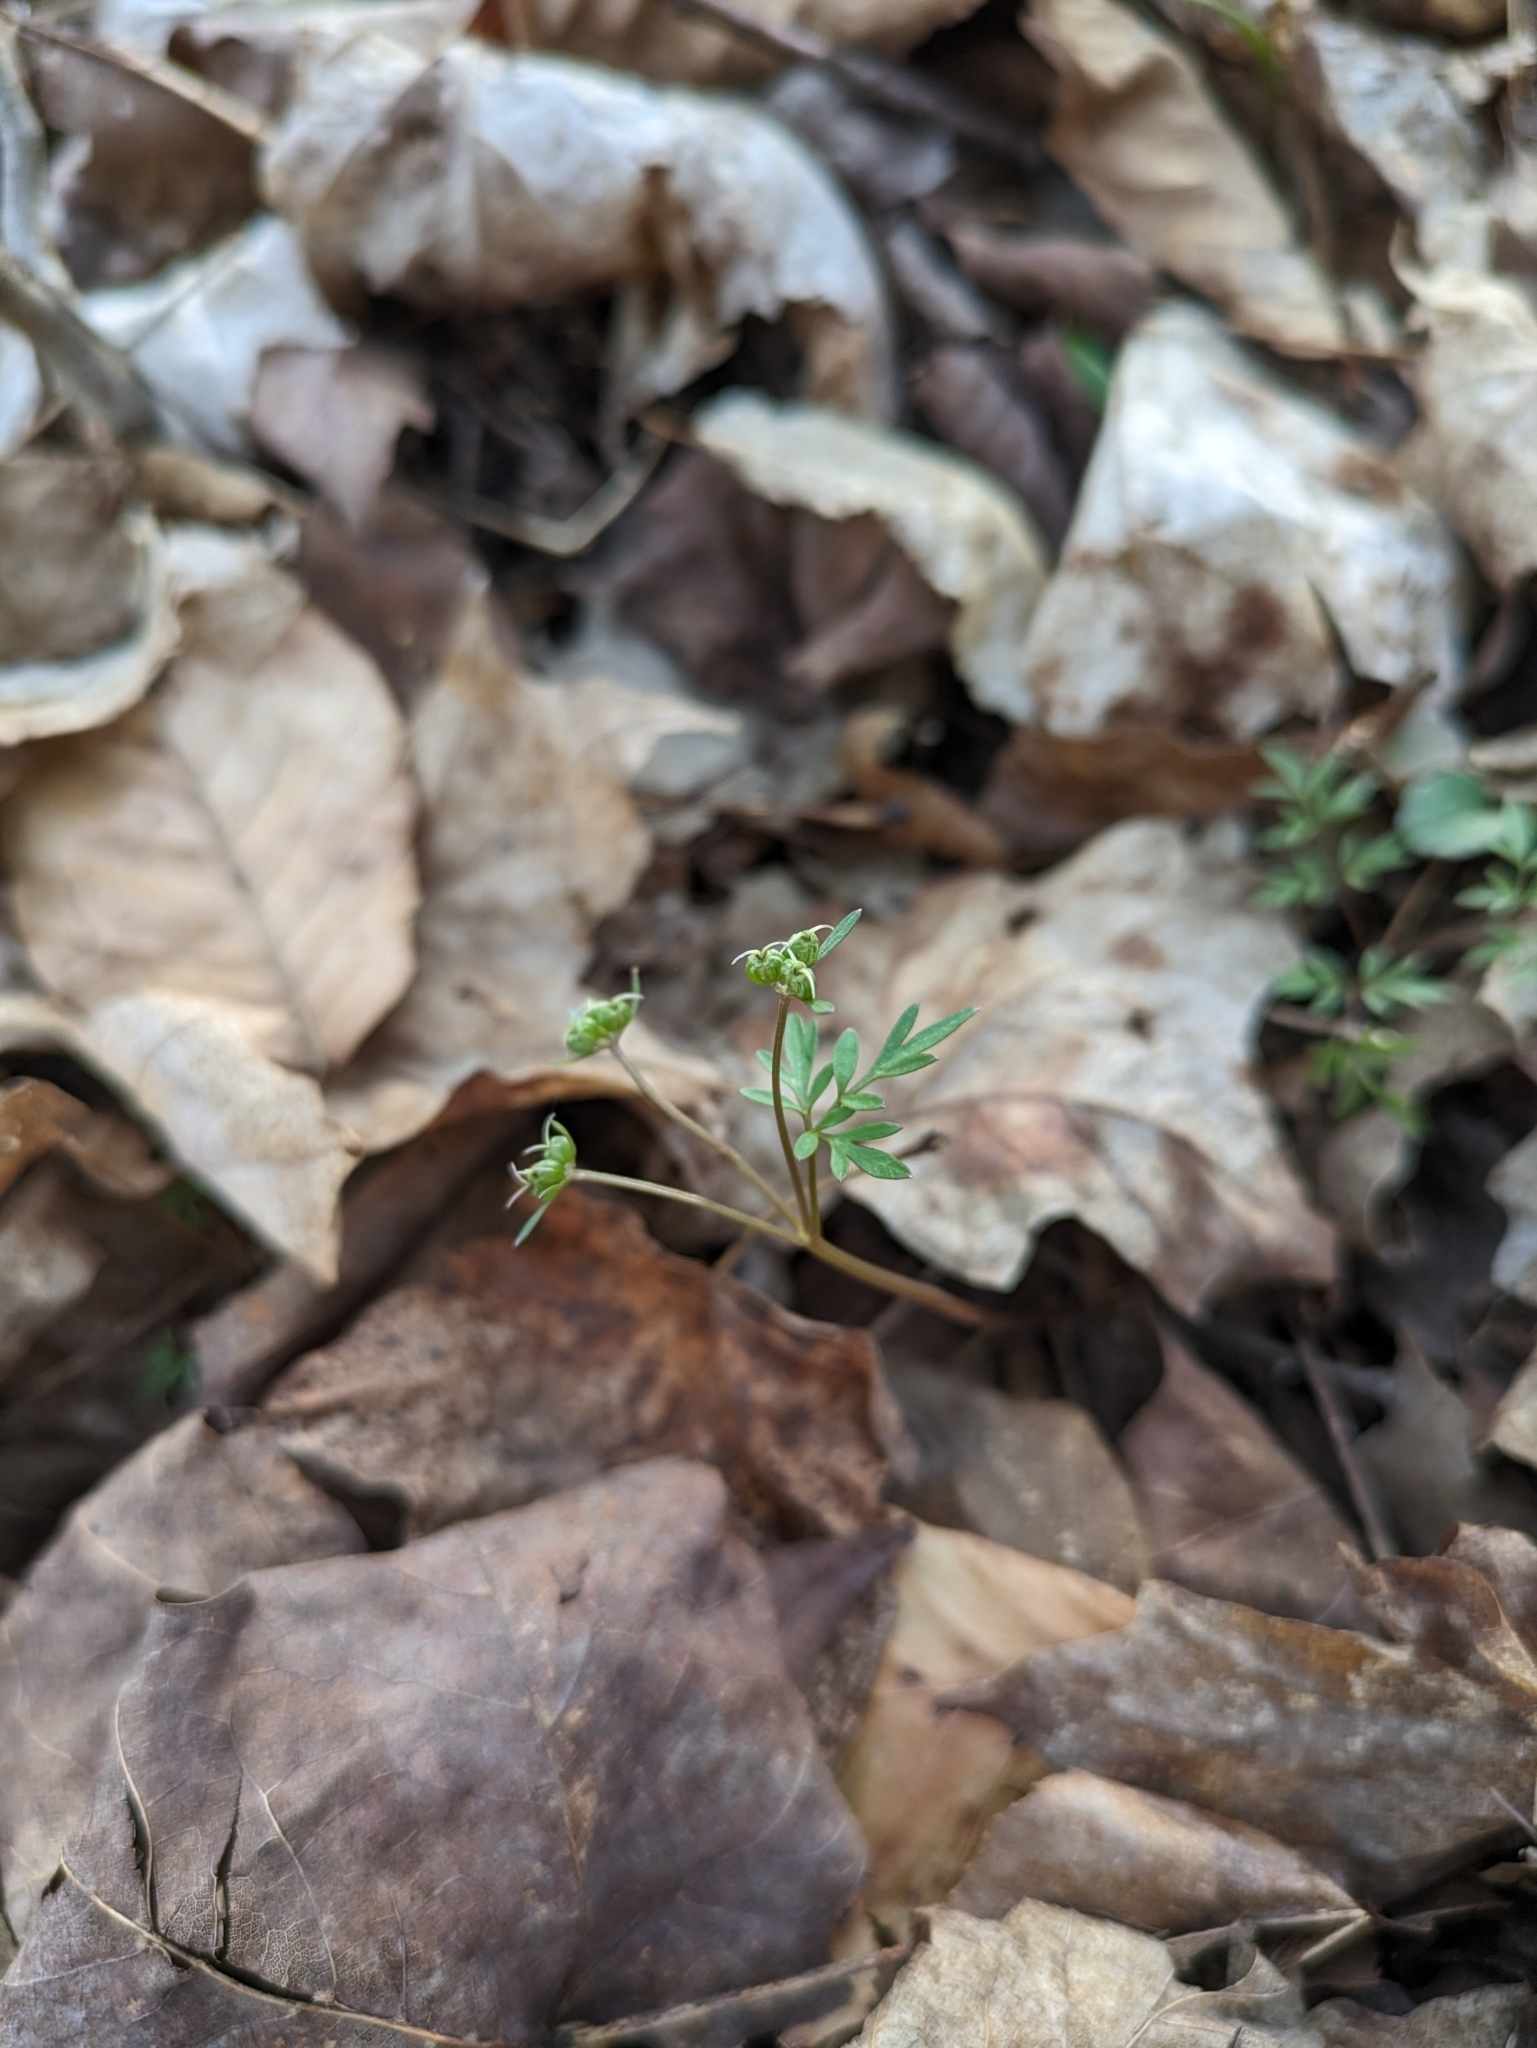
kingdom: Plantae
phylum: Tracheophyta
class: Magnoliopsida
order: Apiales
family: Apiaceae
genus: Erigenia
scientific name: Erigenia bulbosa
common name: Pepper-and-salt
